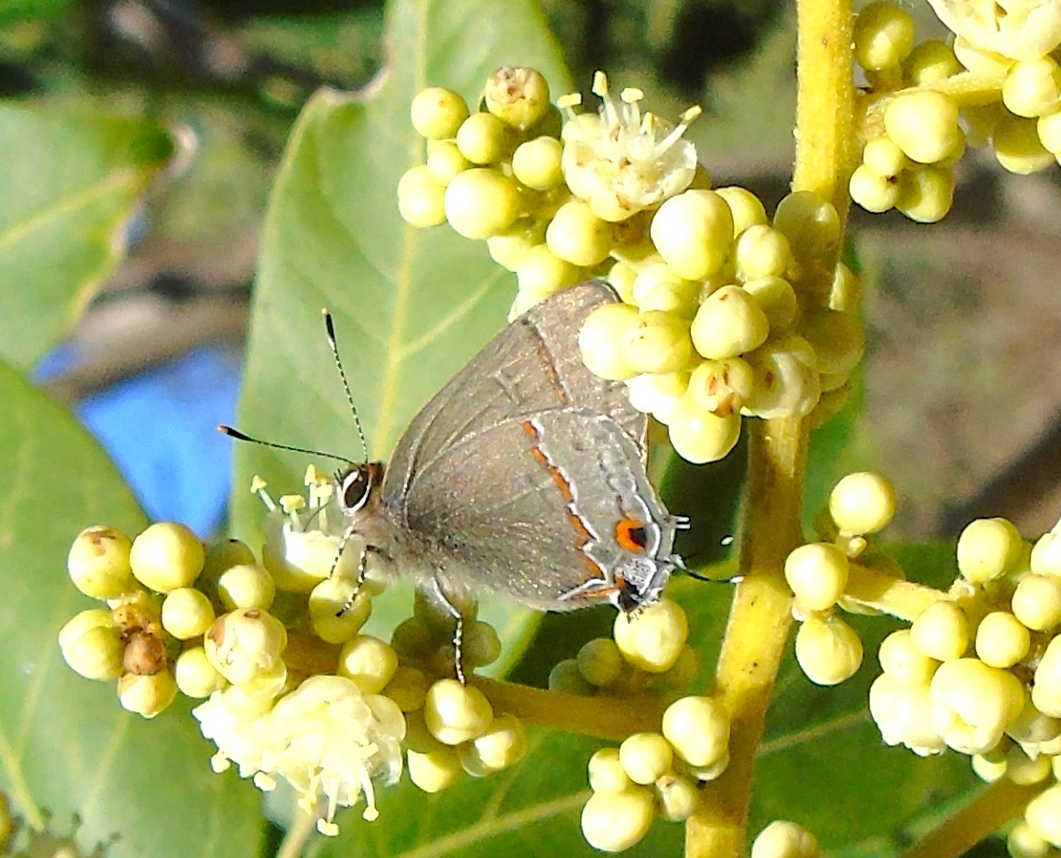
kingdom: Animalia
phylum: Arthropoda
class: Insecta
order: Lepidoptera
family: Lycaenidae
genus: Electrostrymon
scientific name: Electrostrymon endymion
